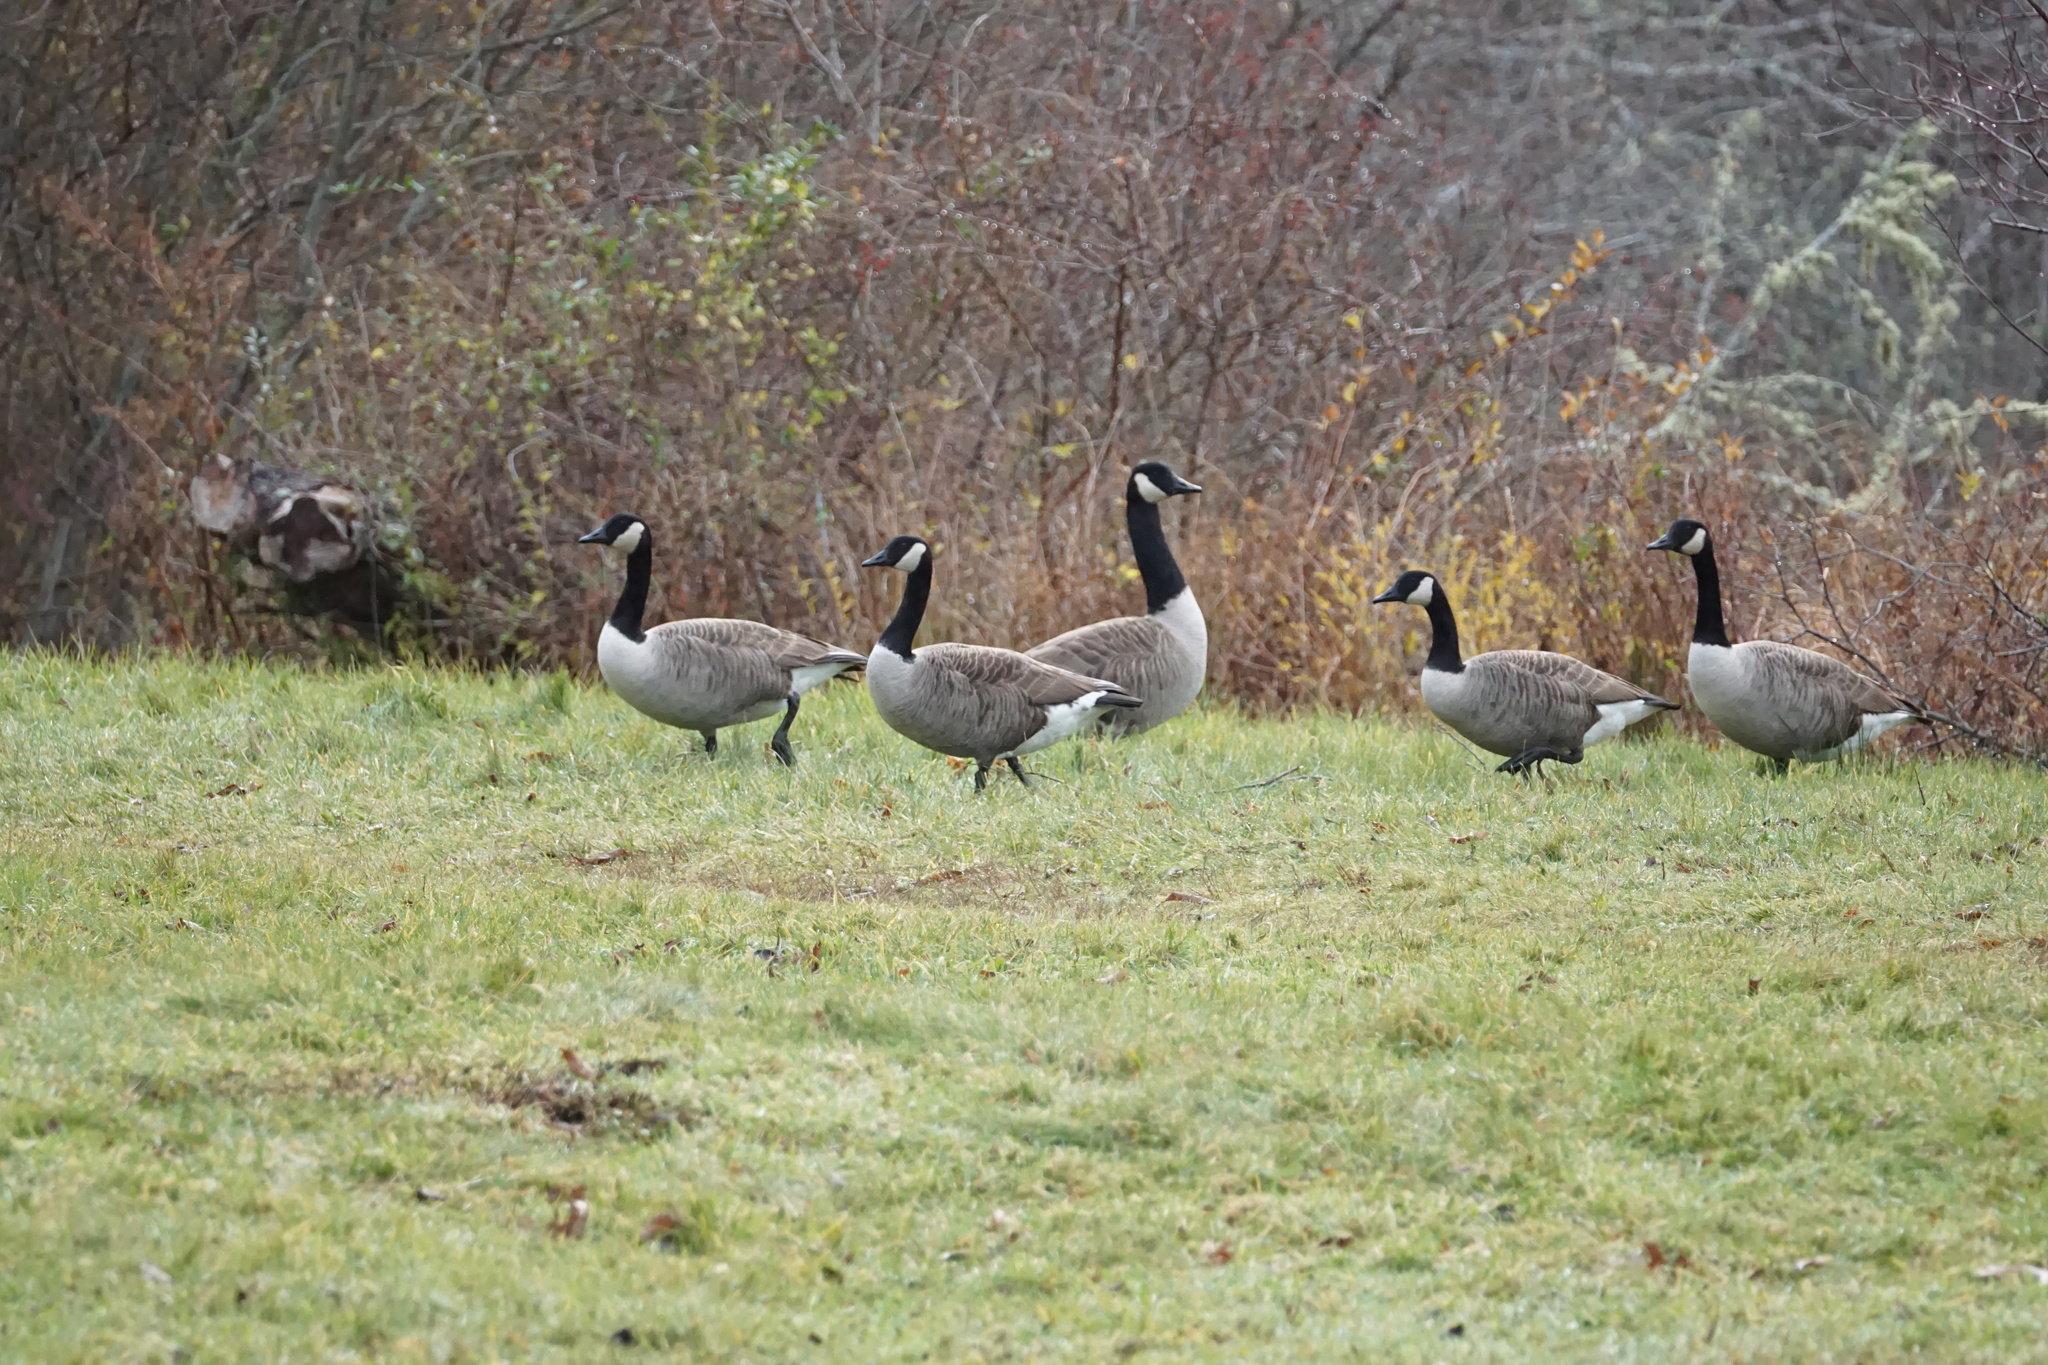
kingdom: Animalia
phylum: Chordata
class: Aves
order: Anseriformes
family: Anatidae
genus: Branta
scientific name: Branta canadensis
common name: Canada goose
